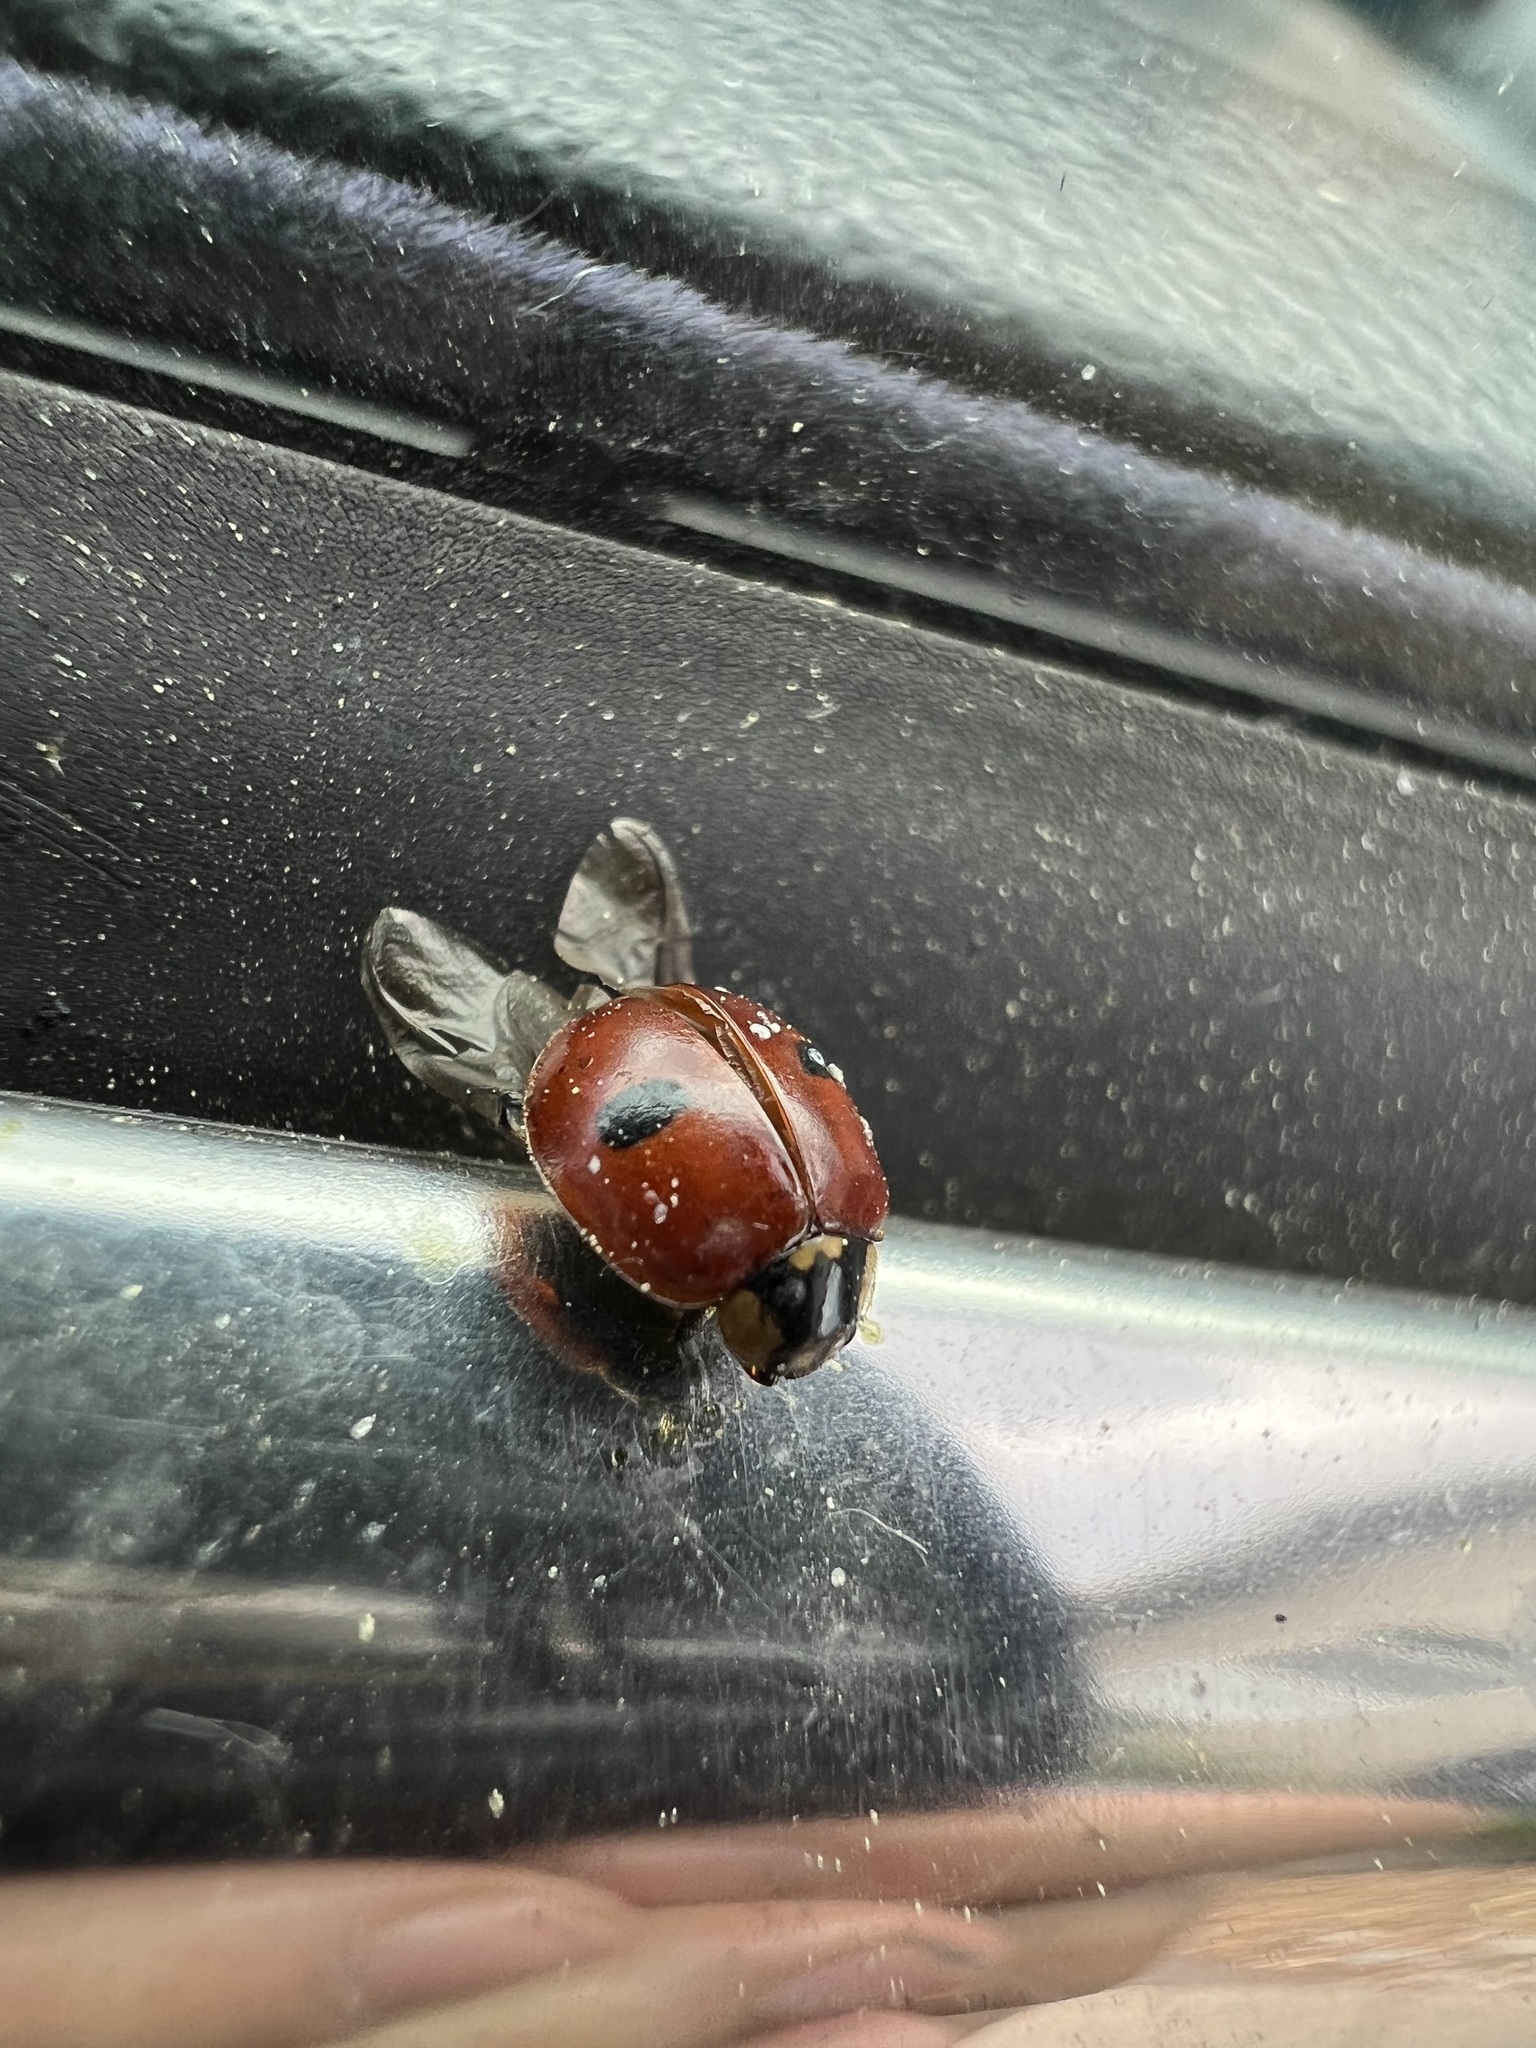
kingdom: Animalia
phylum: Arthropoda
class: Insecta
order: Coleoptera
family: Coccinellidae
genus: Adalia
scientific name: Adalia bipunctata
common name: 2-spot ladybird
